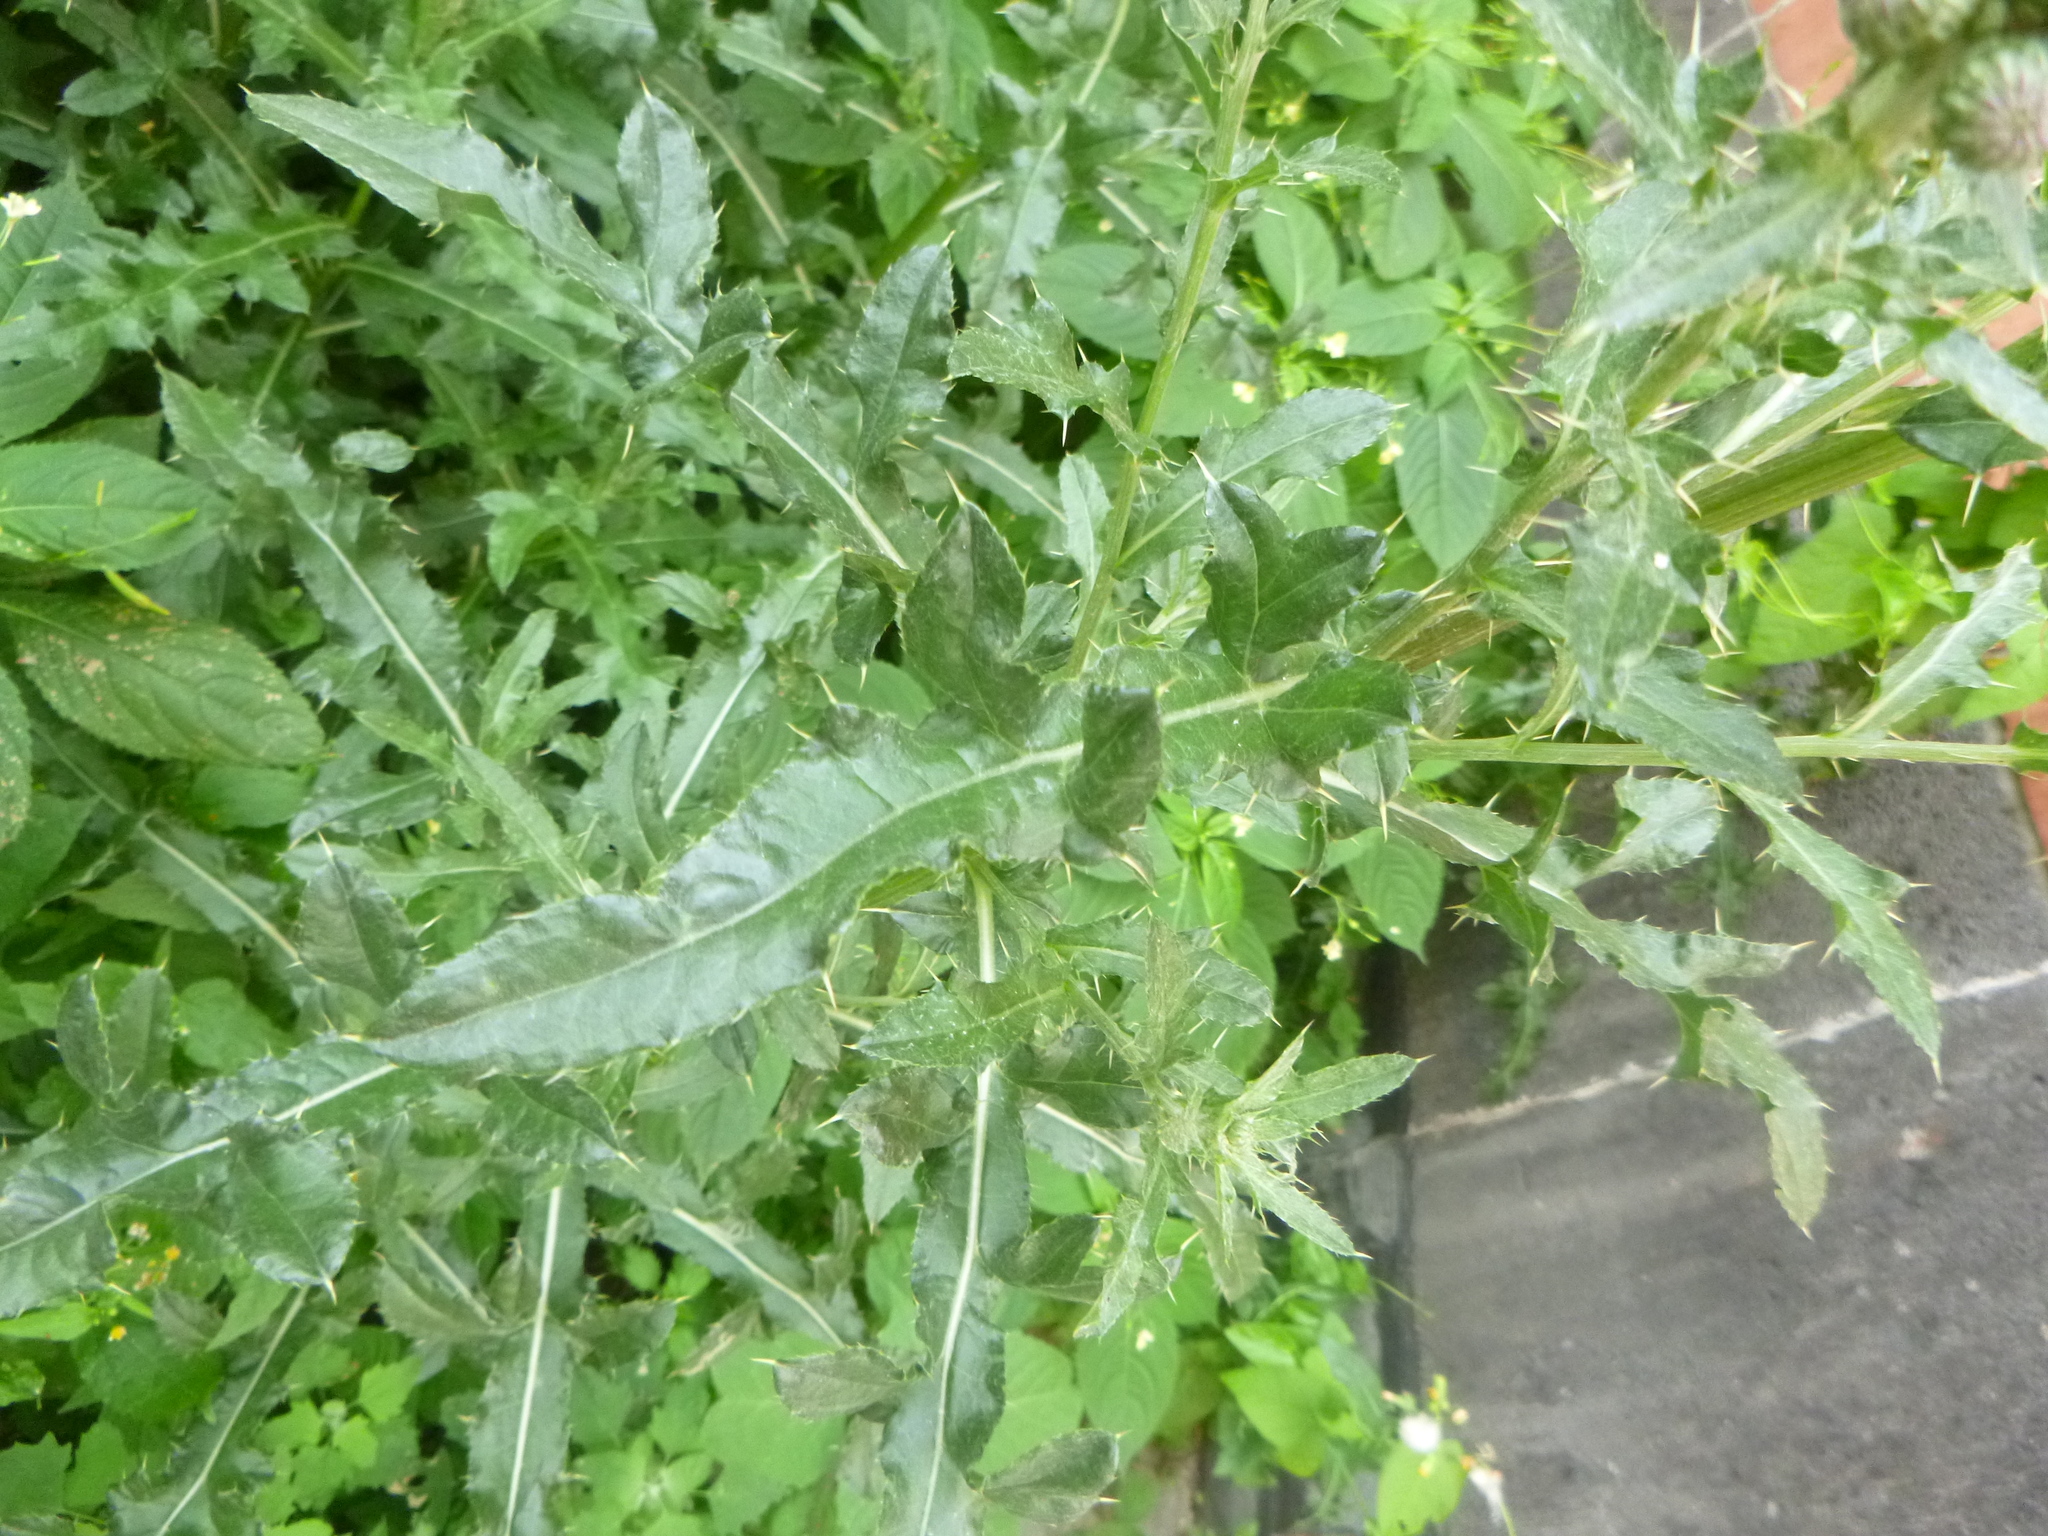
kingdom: Plantae
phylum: Tracheophyta
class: Magnoliopsida
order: Asterales
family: Asteraceae
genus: Cirsium
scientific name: Cirsium arvense
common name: Creeping thistle
